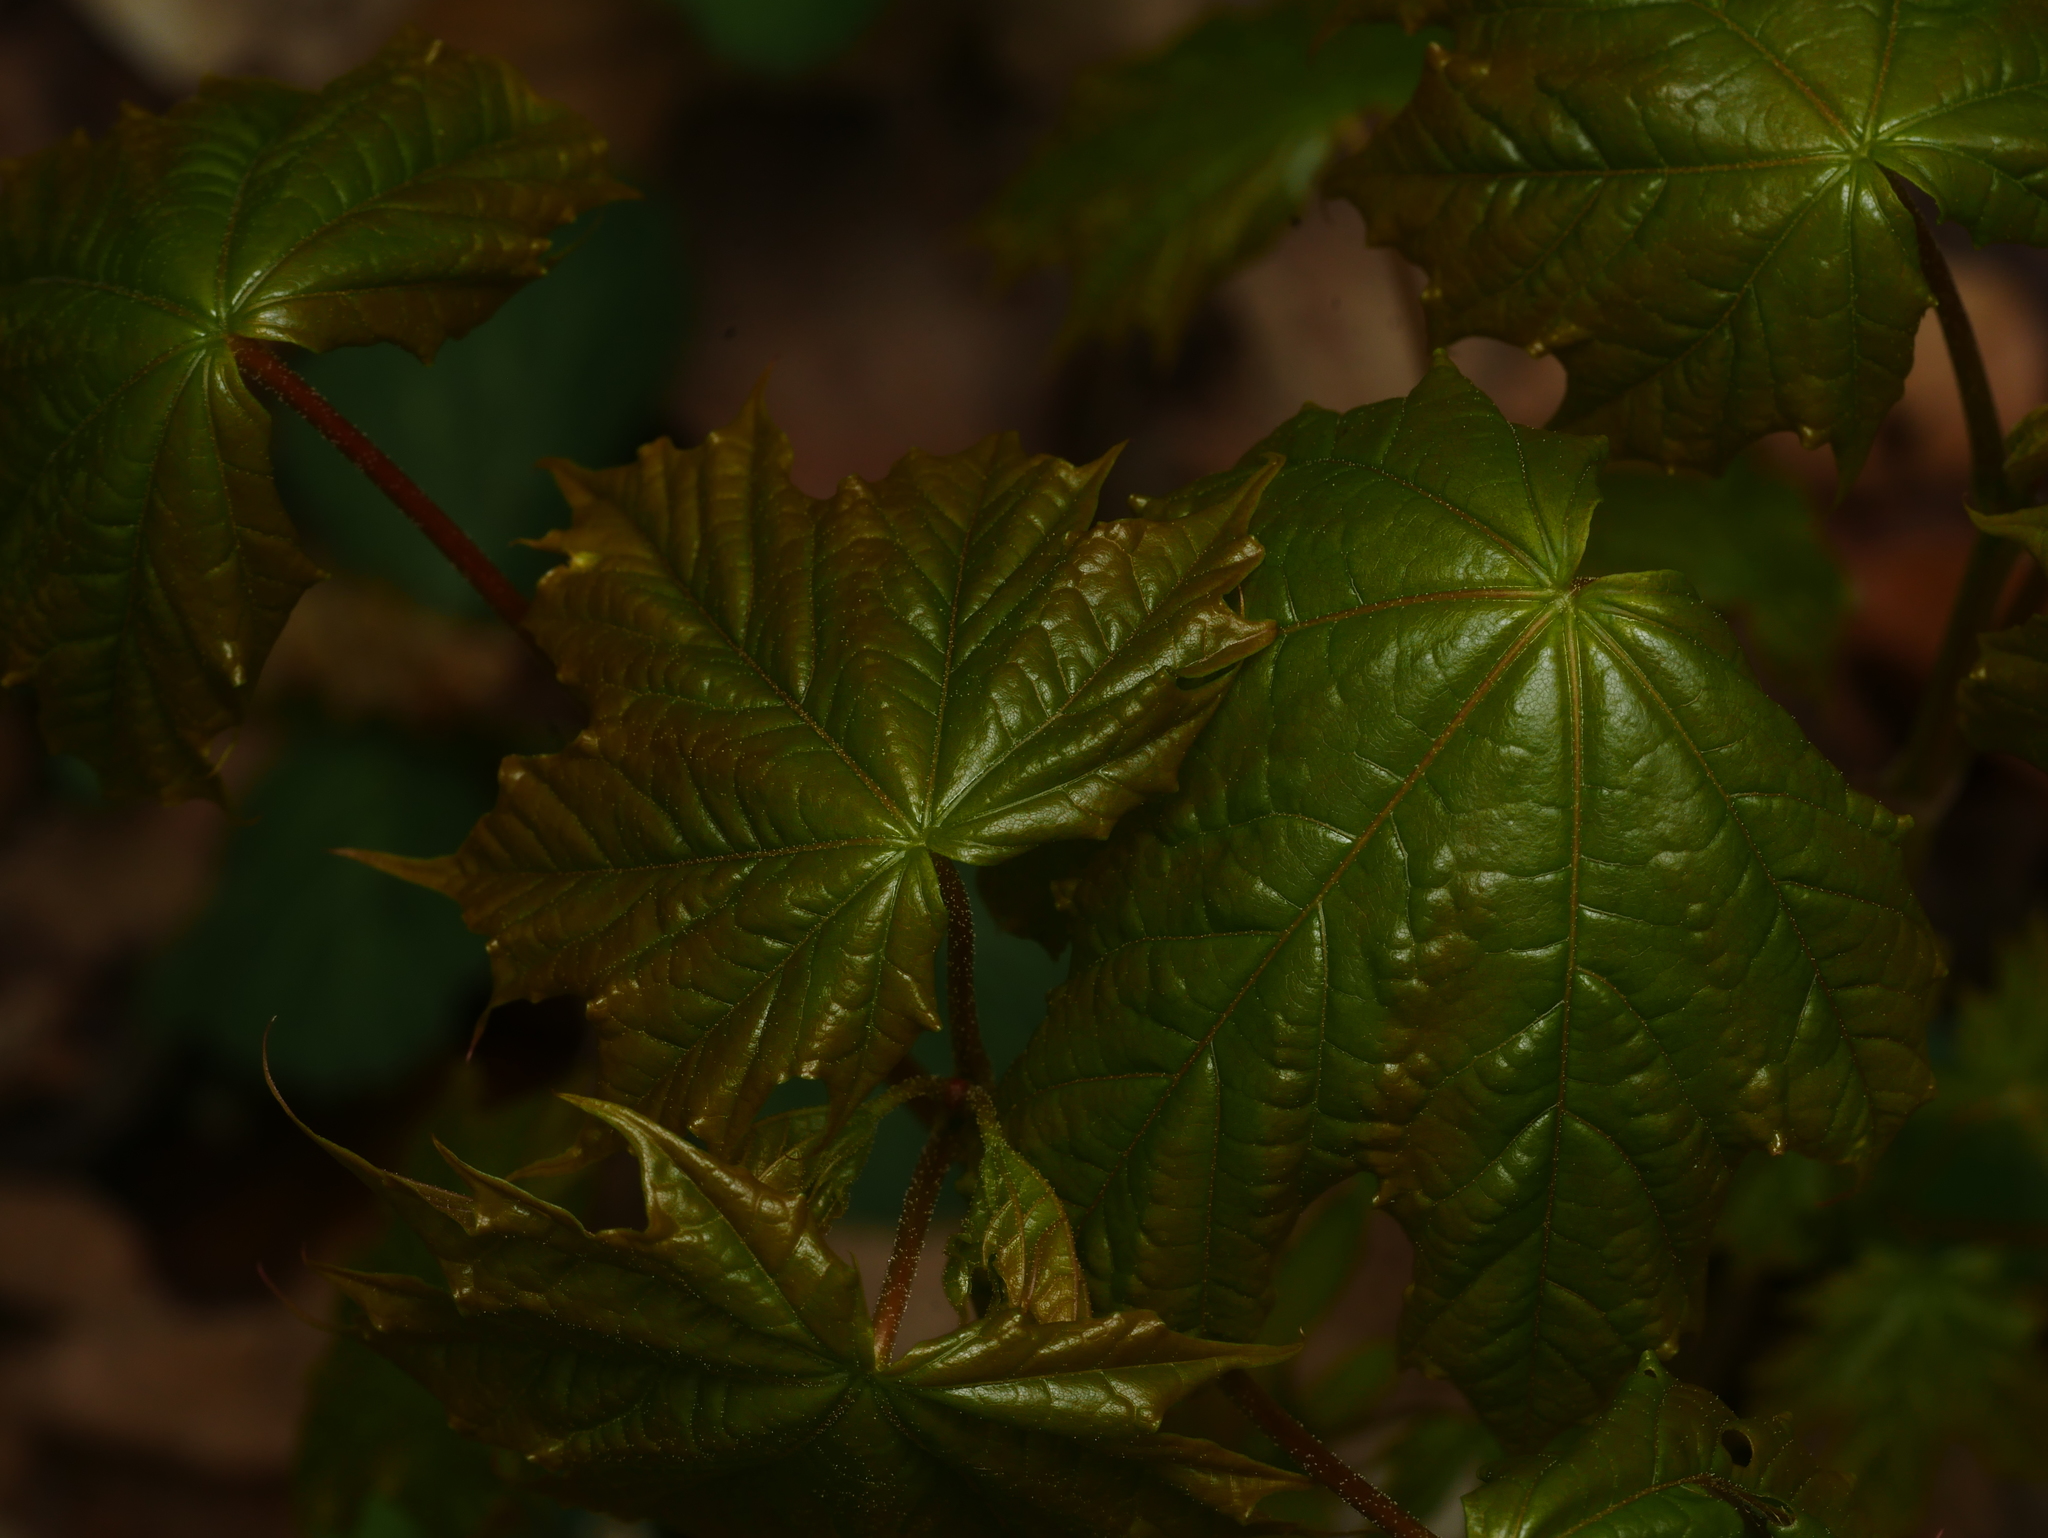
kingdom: Plantae
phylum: Tracheophyta
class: Magnoliopsida
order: Sapindales
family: Sapindaceae
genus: Acer
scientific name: Acer platanoides
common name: Norway maple
